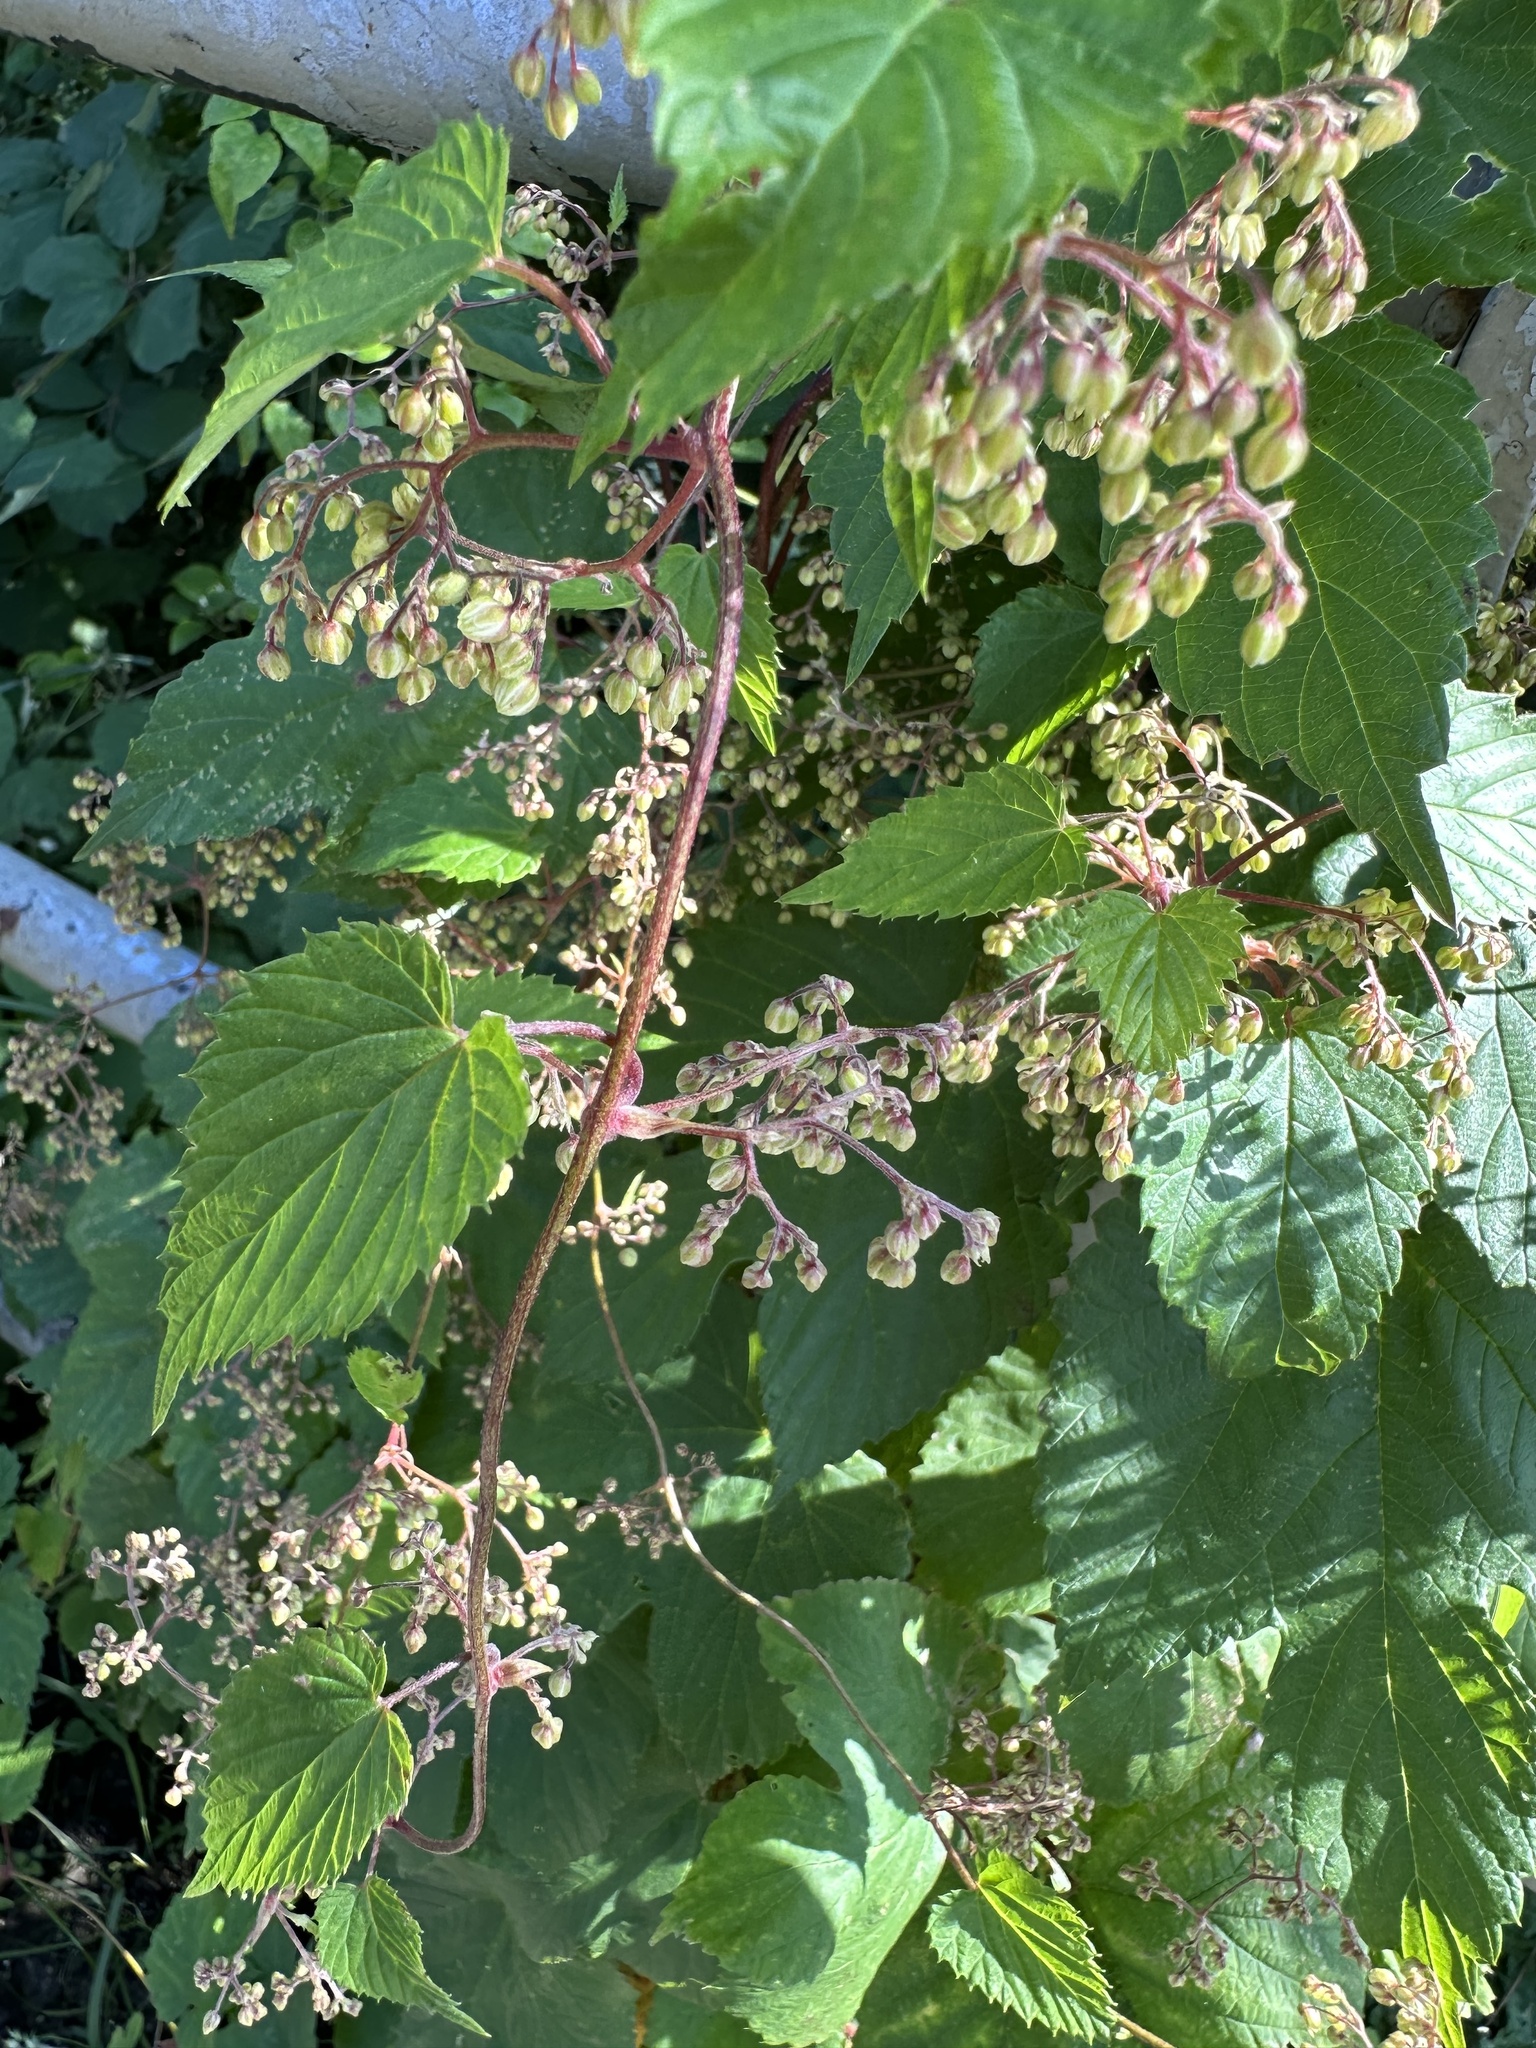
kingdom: Plantae
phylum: Tracheophyta
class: Magnoliopsida
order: Rosales
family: Cannabaceae
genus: Humulus
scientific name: Humulus lupulus
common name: Hop
